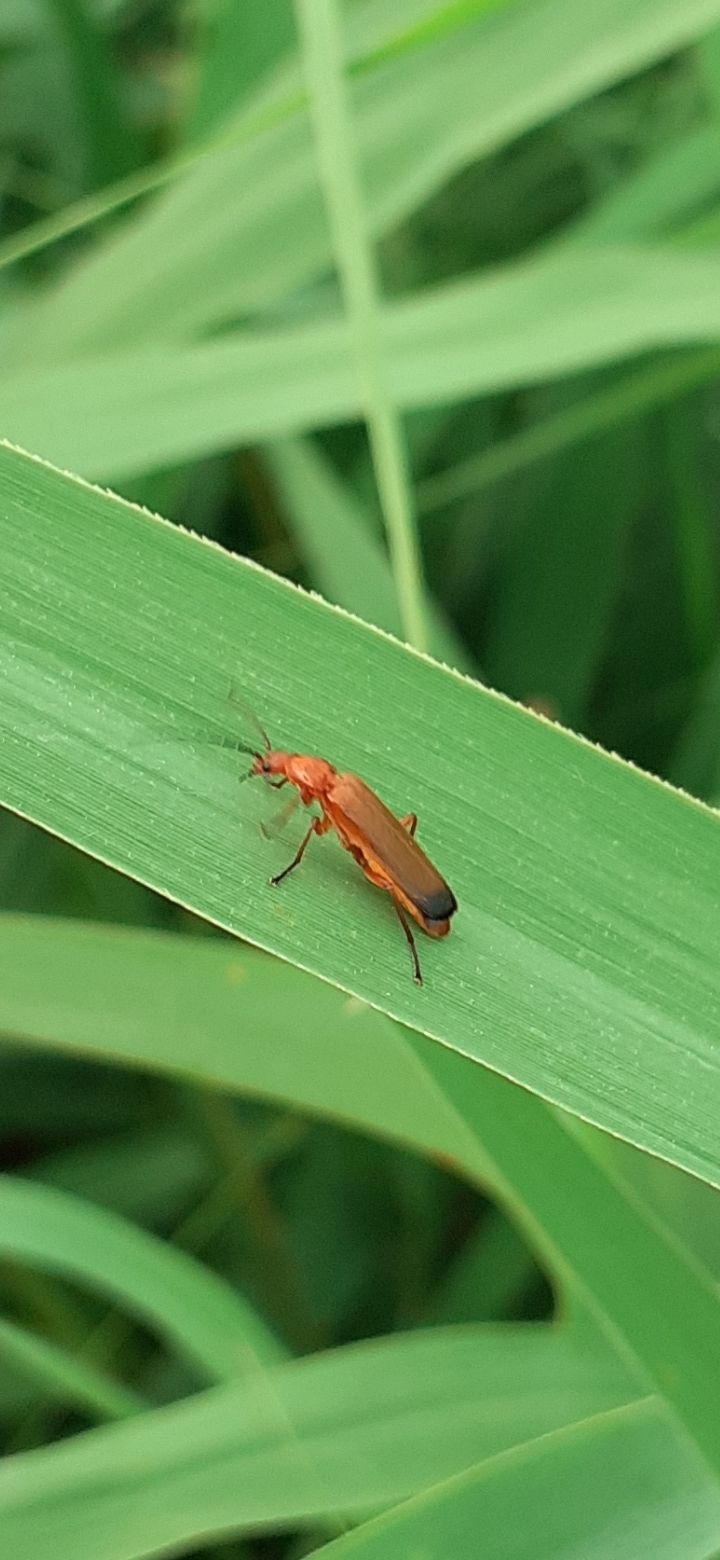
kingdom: Animalia
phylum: Arthropoda
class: Insecta
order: Coleoptera
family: Cantharidae
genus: Rhagonycha
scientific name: Rhagonycha fulva
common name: Common red soldier beetle
